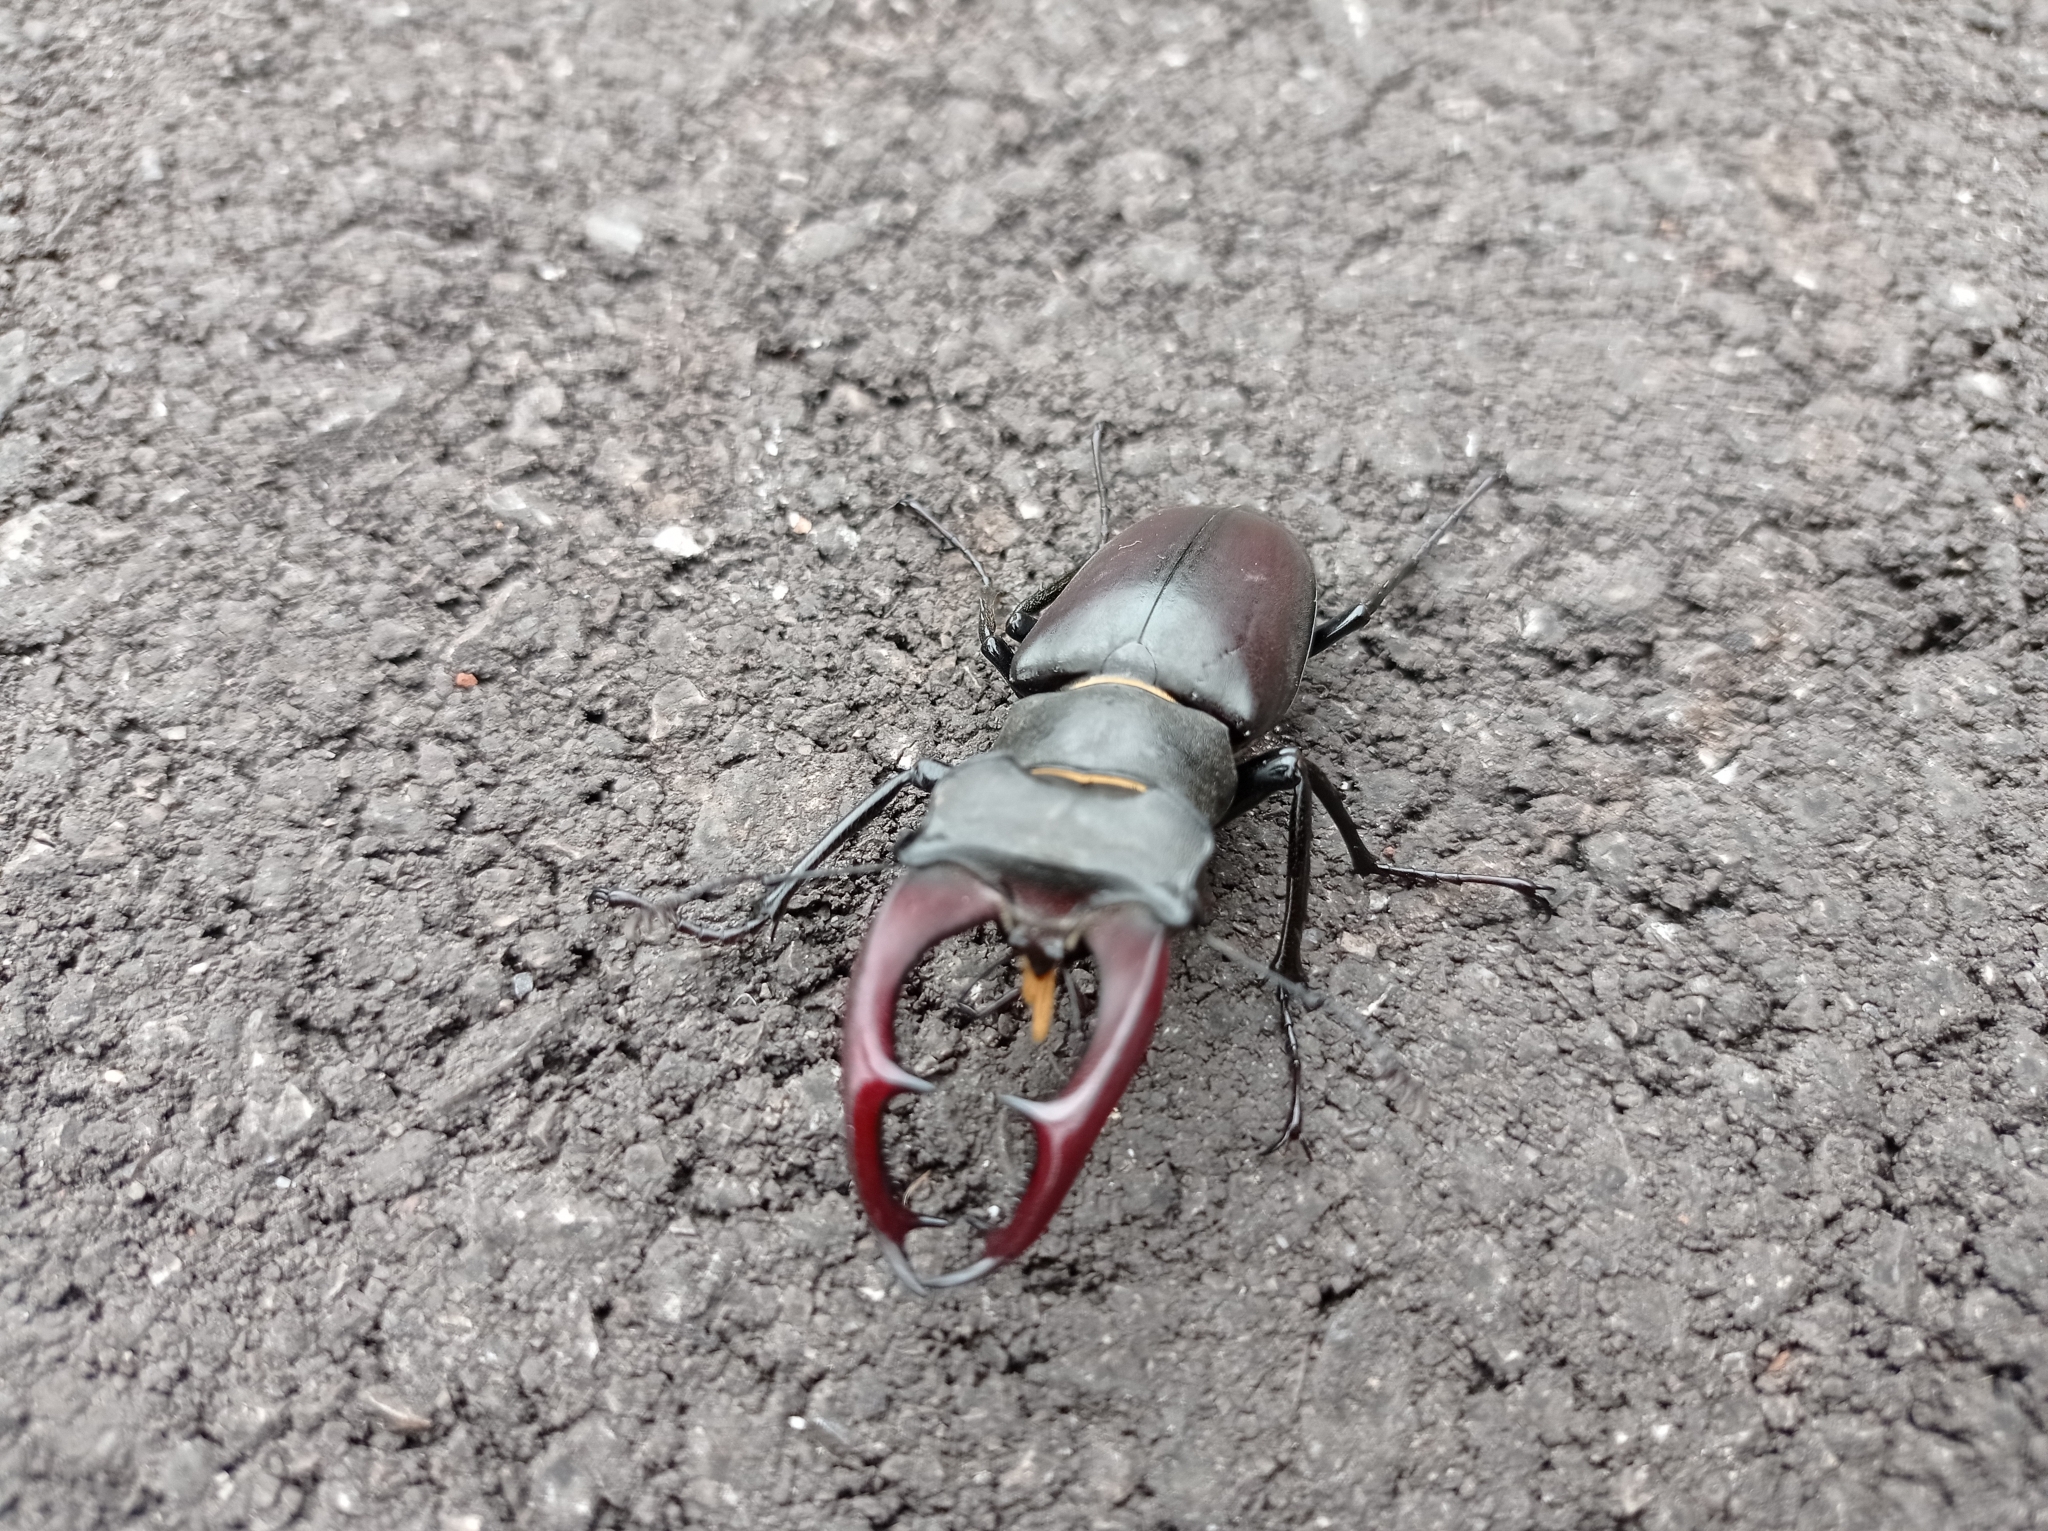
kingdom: Animalia
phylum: Arthropoda
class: Insecta
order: Coleoptera
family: Lucanidae
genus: Lucanus
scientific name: Lucanus cervus
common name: Stag beetle
